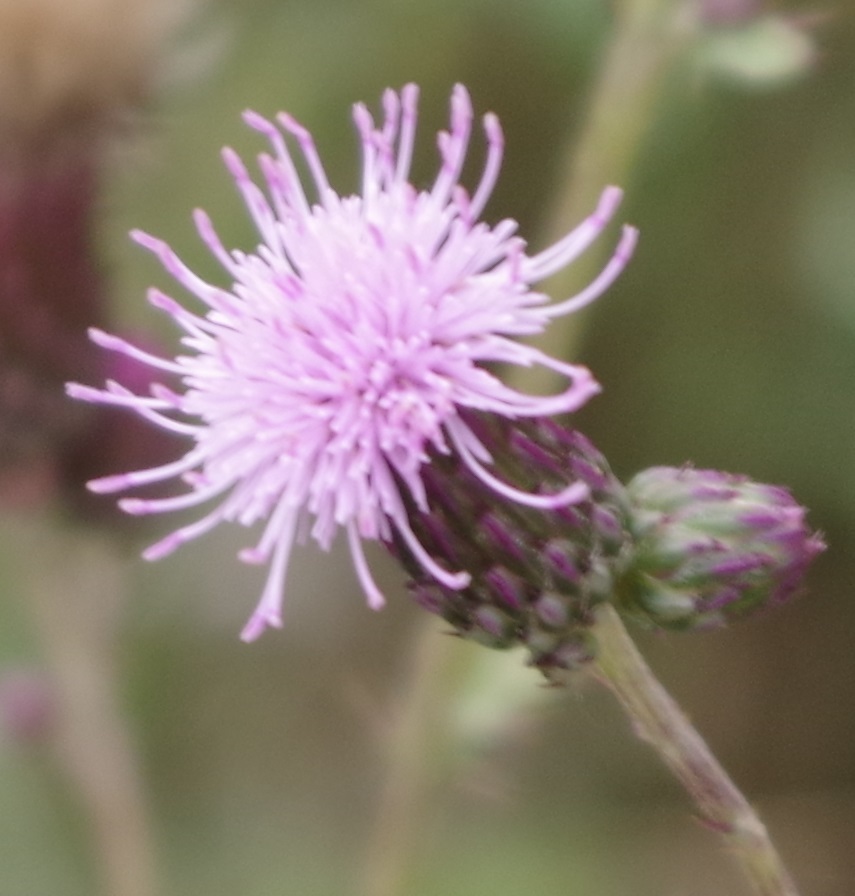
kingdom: Plantae
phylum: Tracheophyta
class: Magnoliopsida
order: Asterales
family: Asteraceae
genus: Cirsium
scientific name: Cirsium arvense
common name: Creeping thistle
